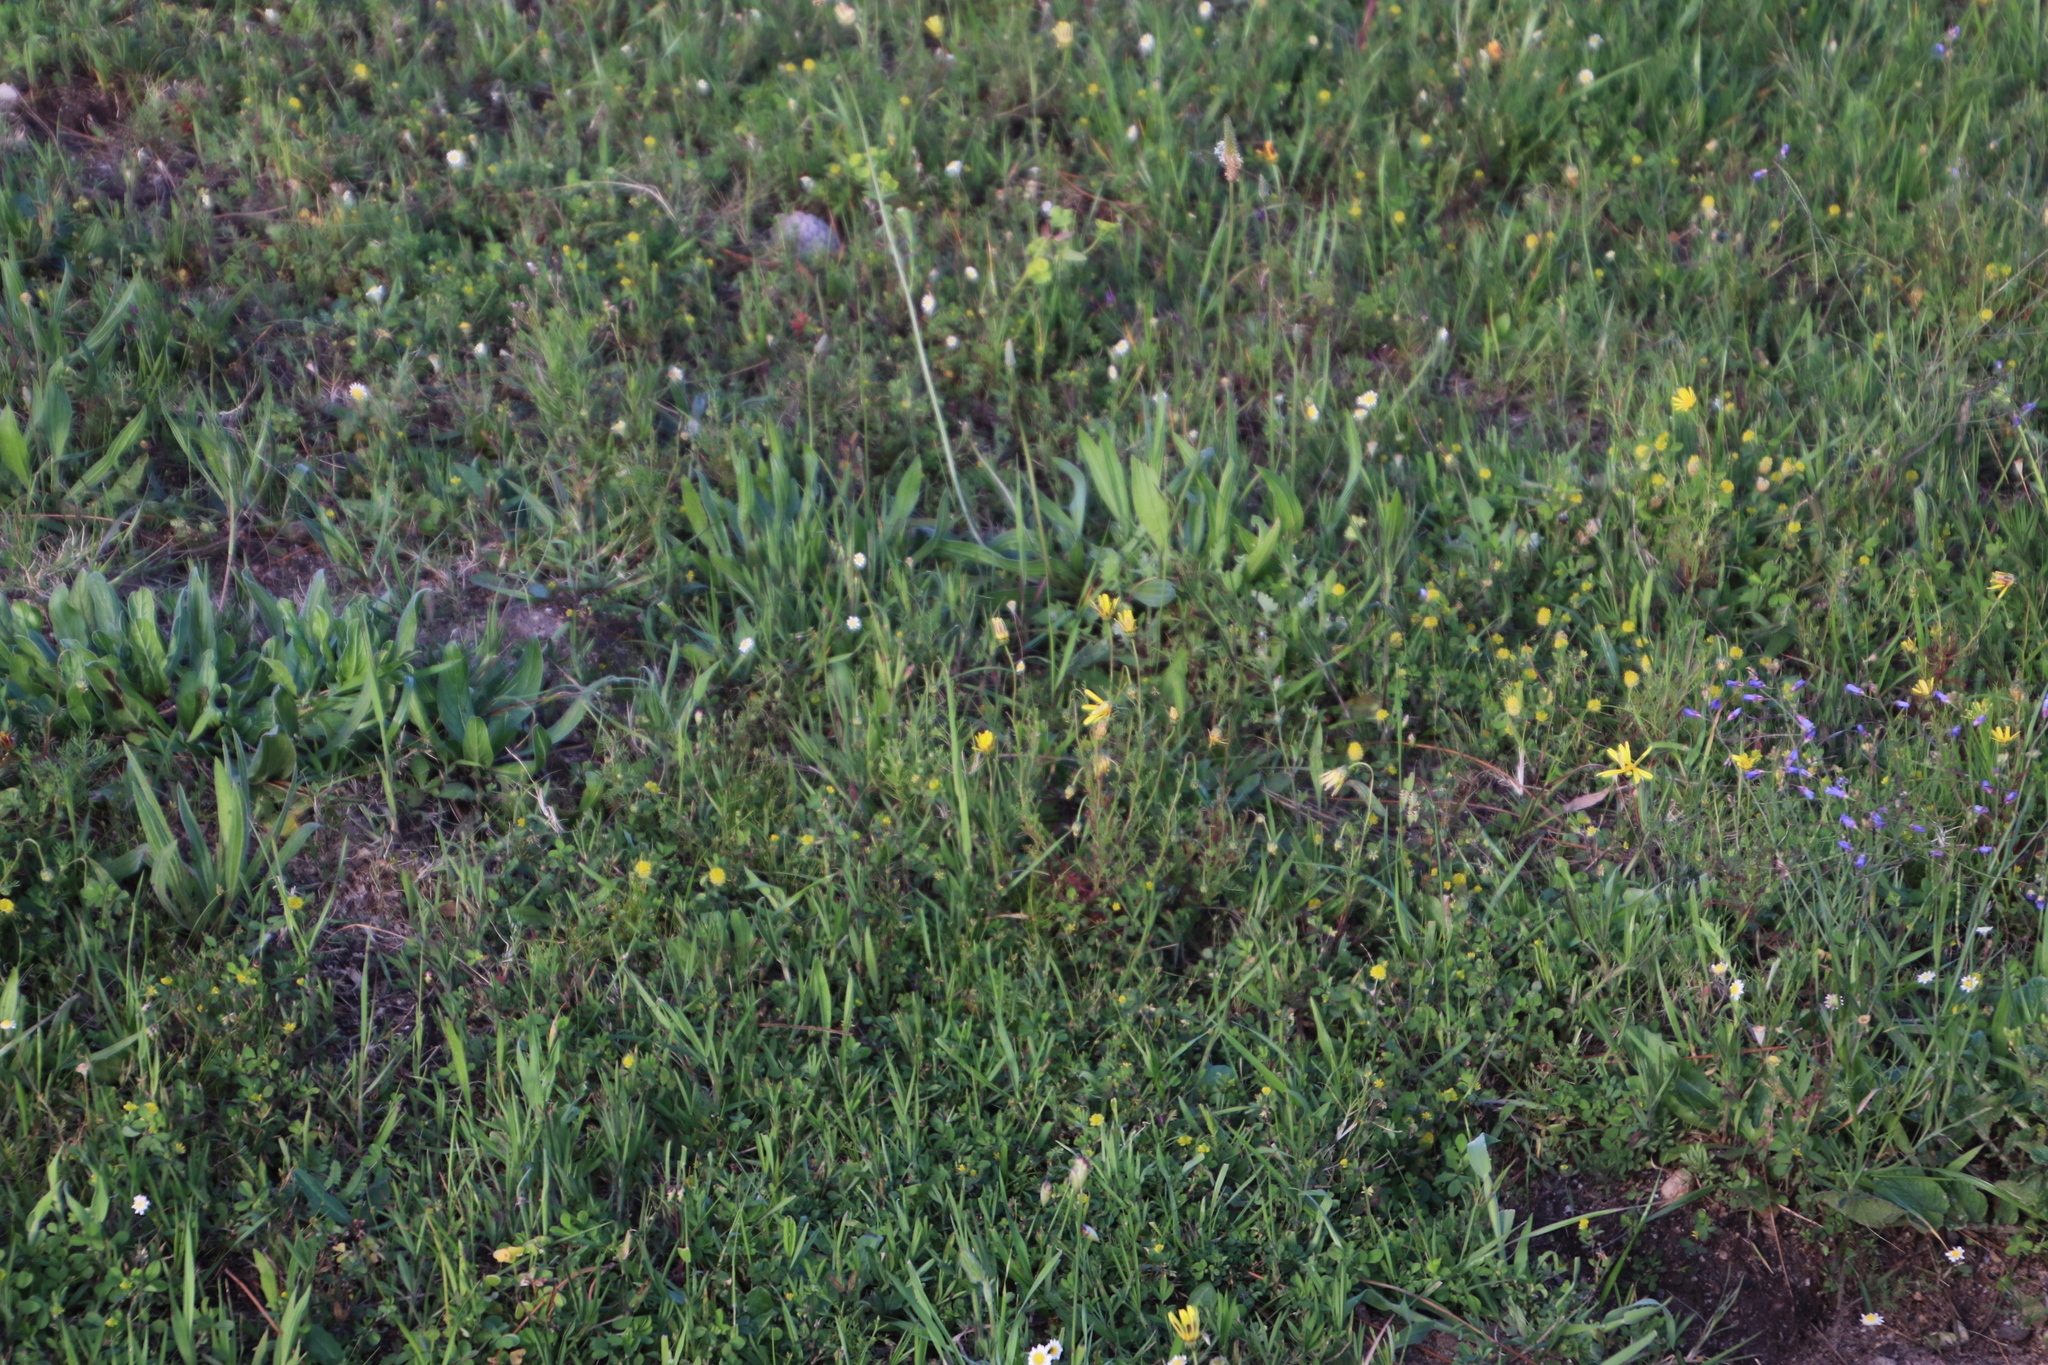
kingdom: Plantae
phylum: Tracheophyta
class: Magnoliopsida
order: Asterales
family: Asteraceae
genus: Ursinia
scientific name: Ursinia anthemoides
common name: Ursinia
